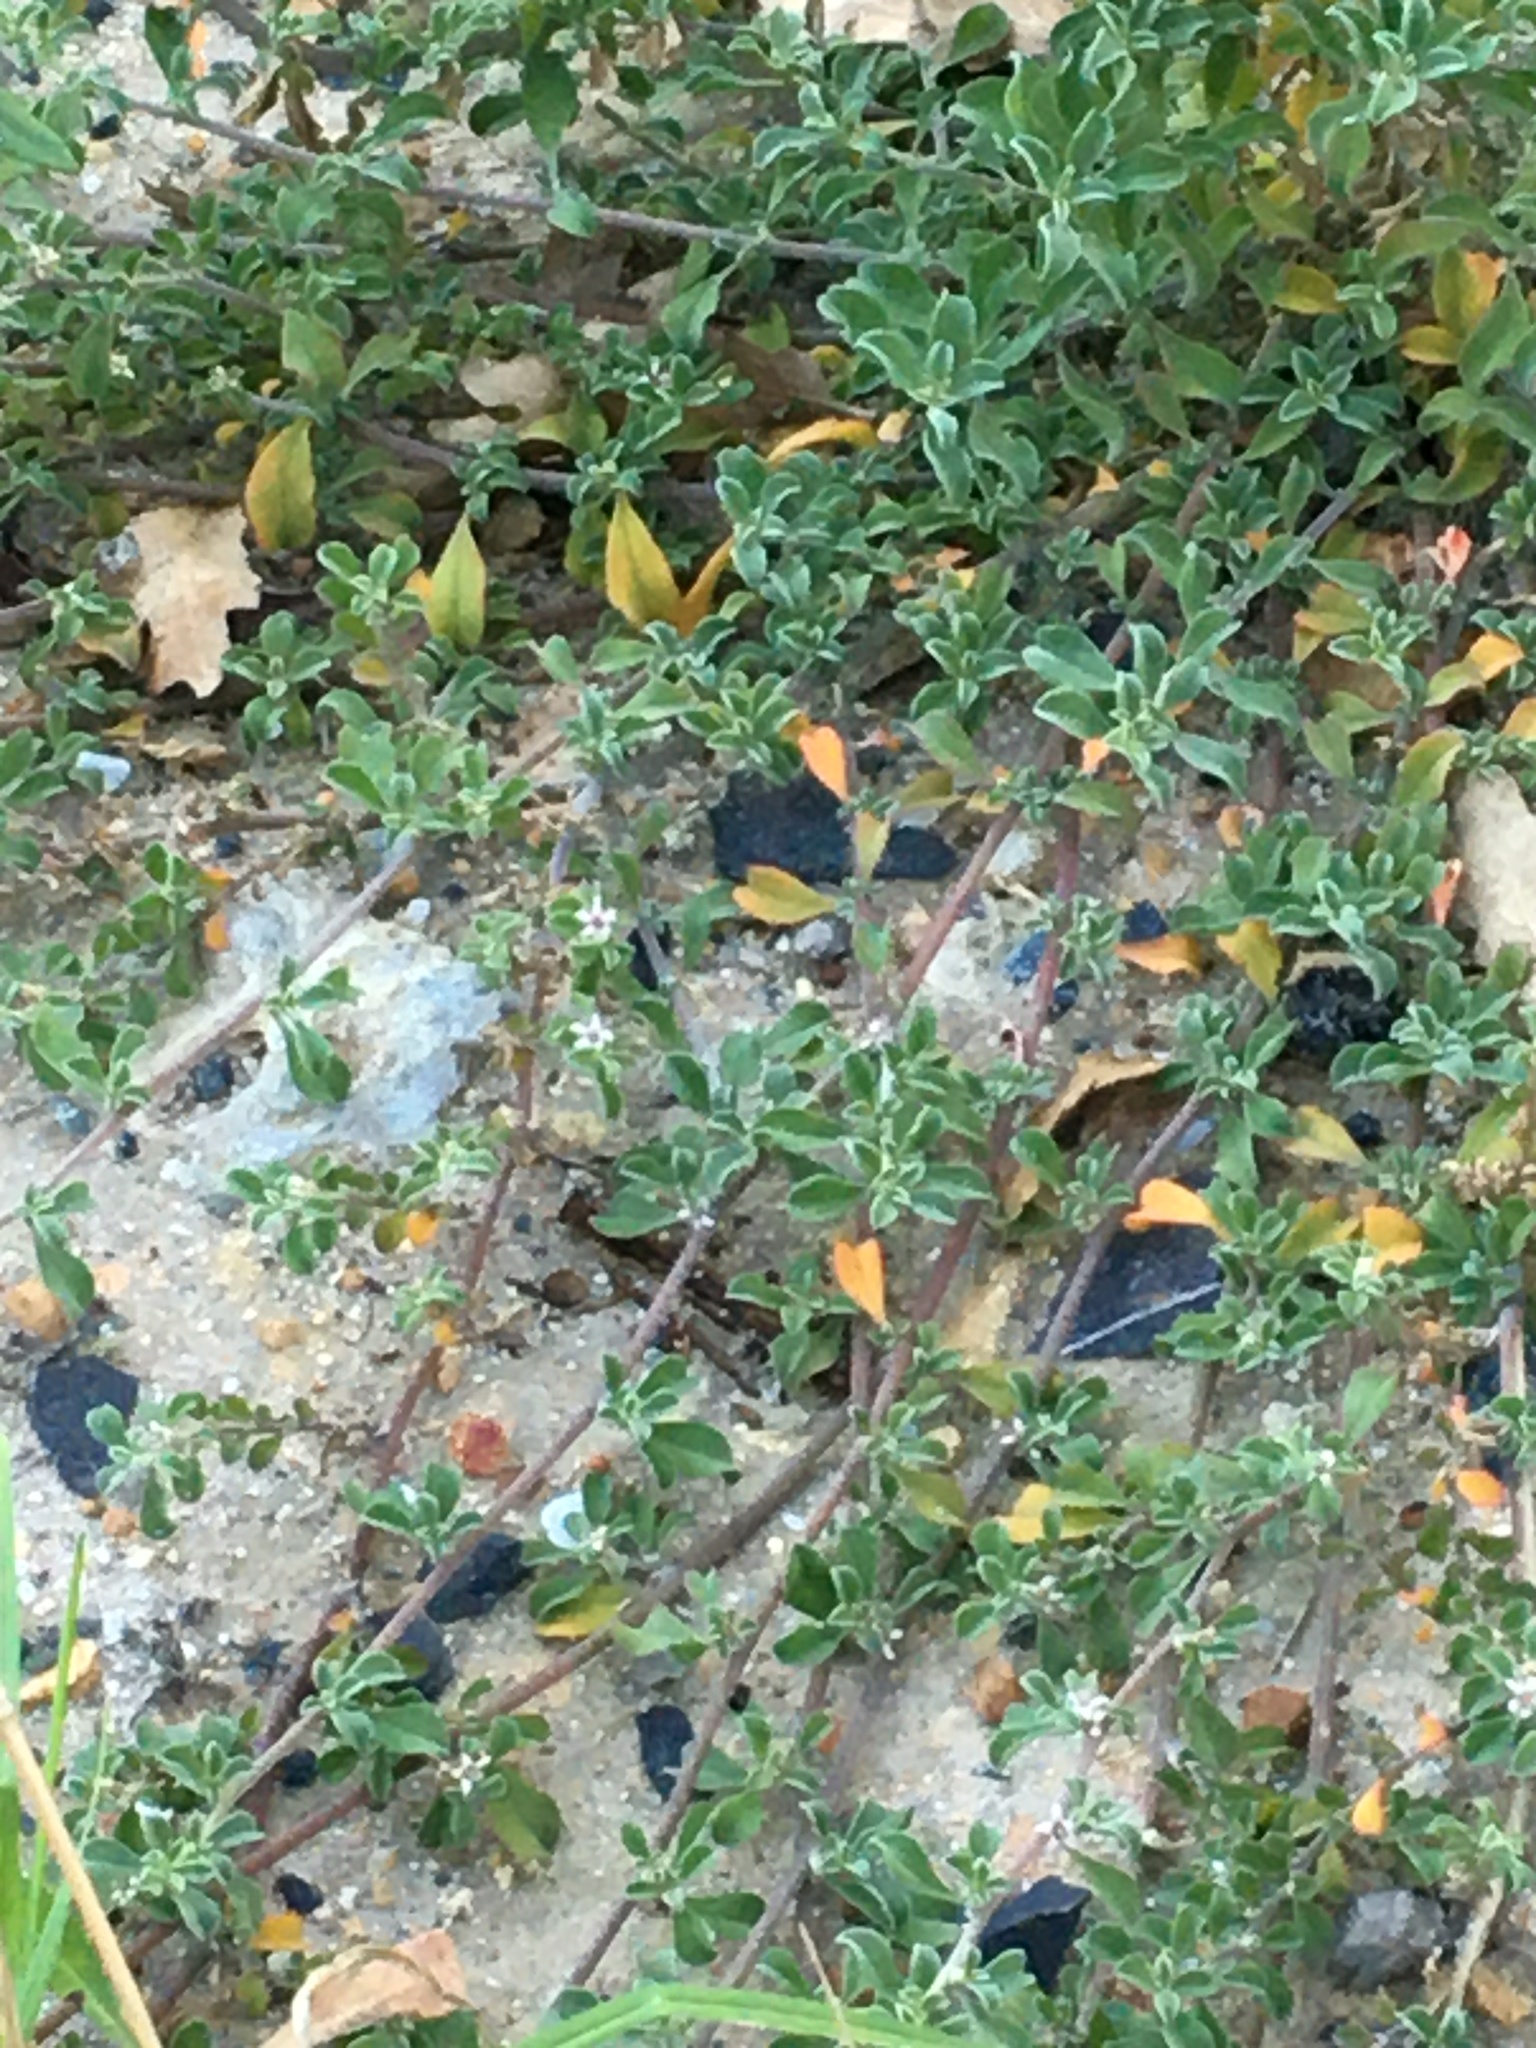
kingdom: Plantae
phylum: Tracheophyta
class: Magnoliopsida
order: Caryophyllales
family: Aizoaceae
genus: Aizoon
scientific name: Aizoon pubescens
